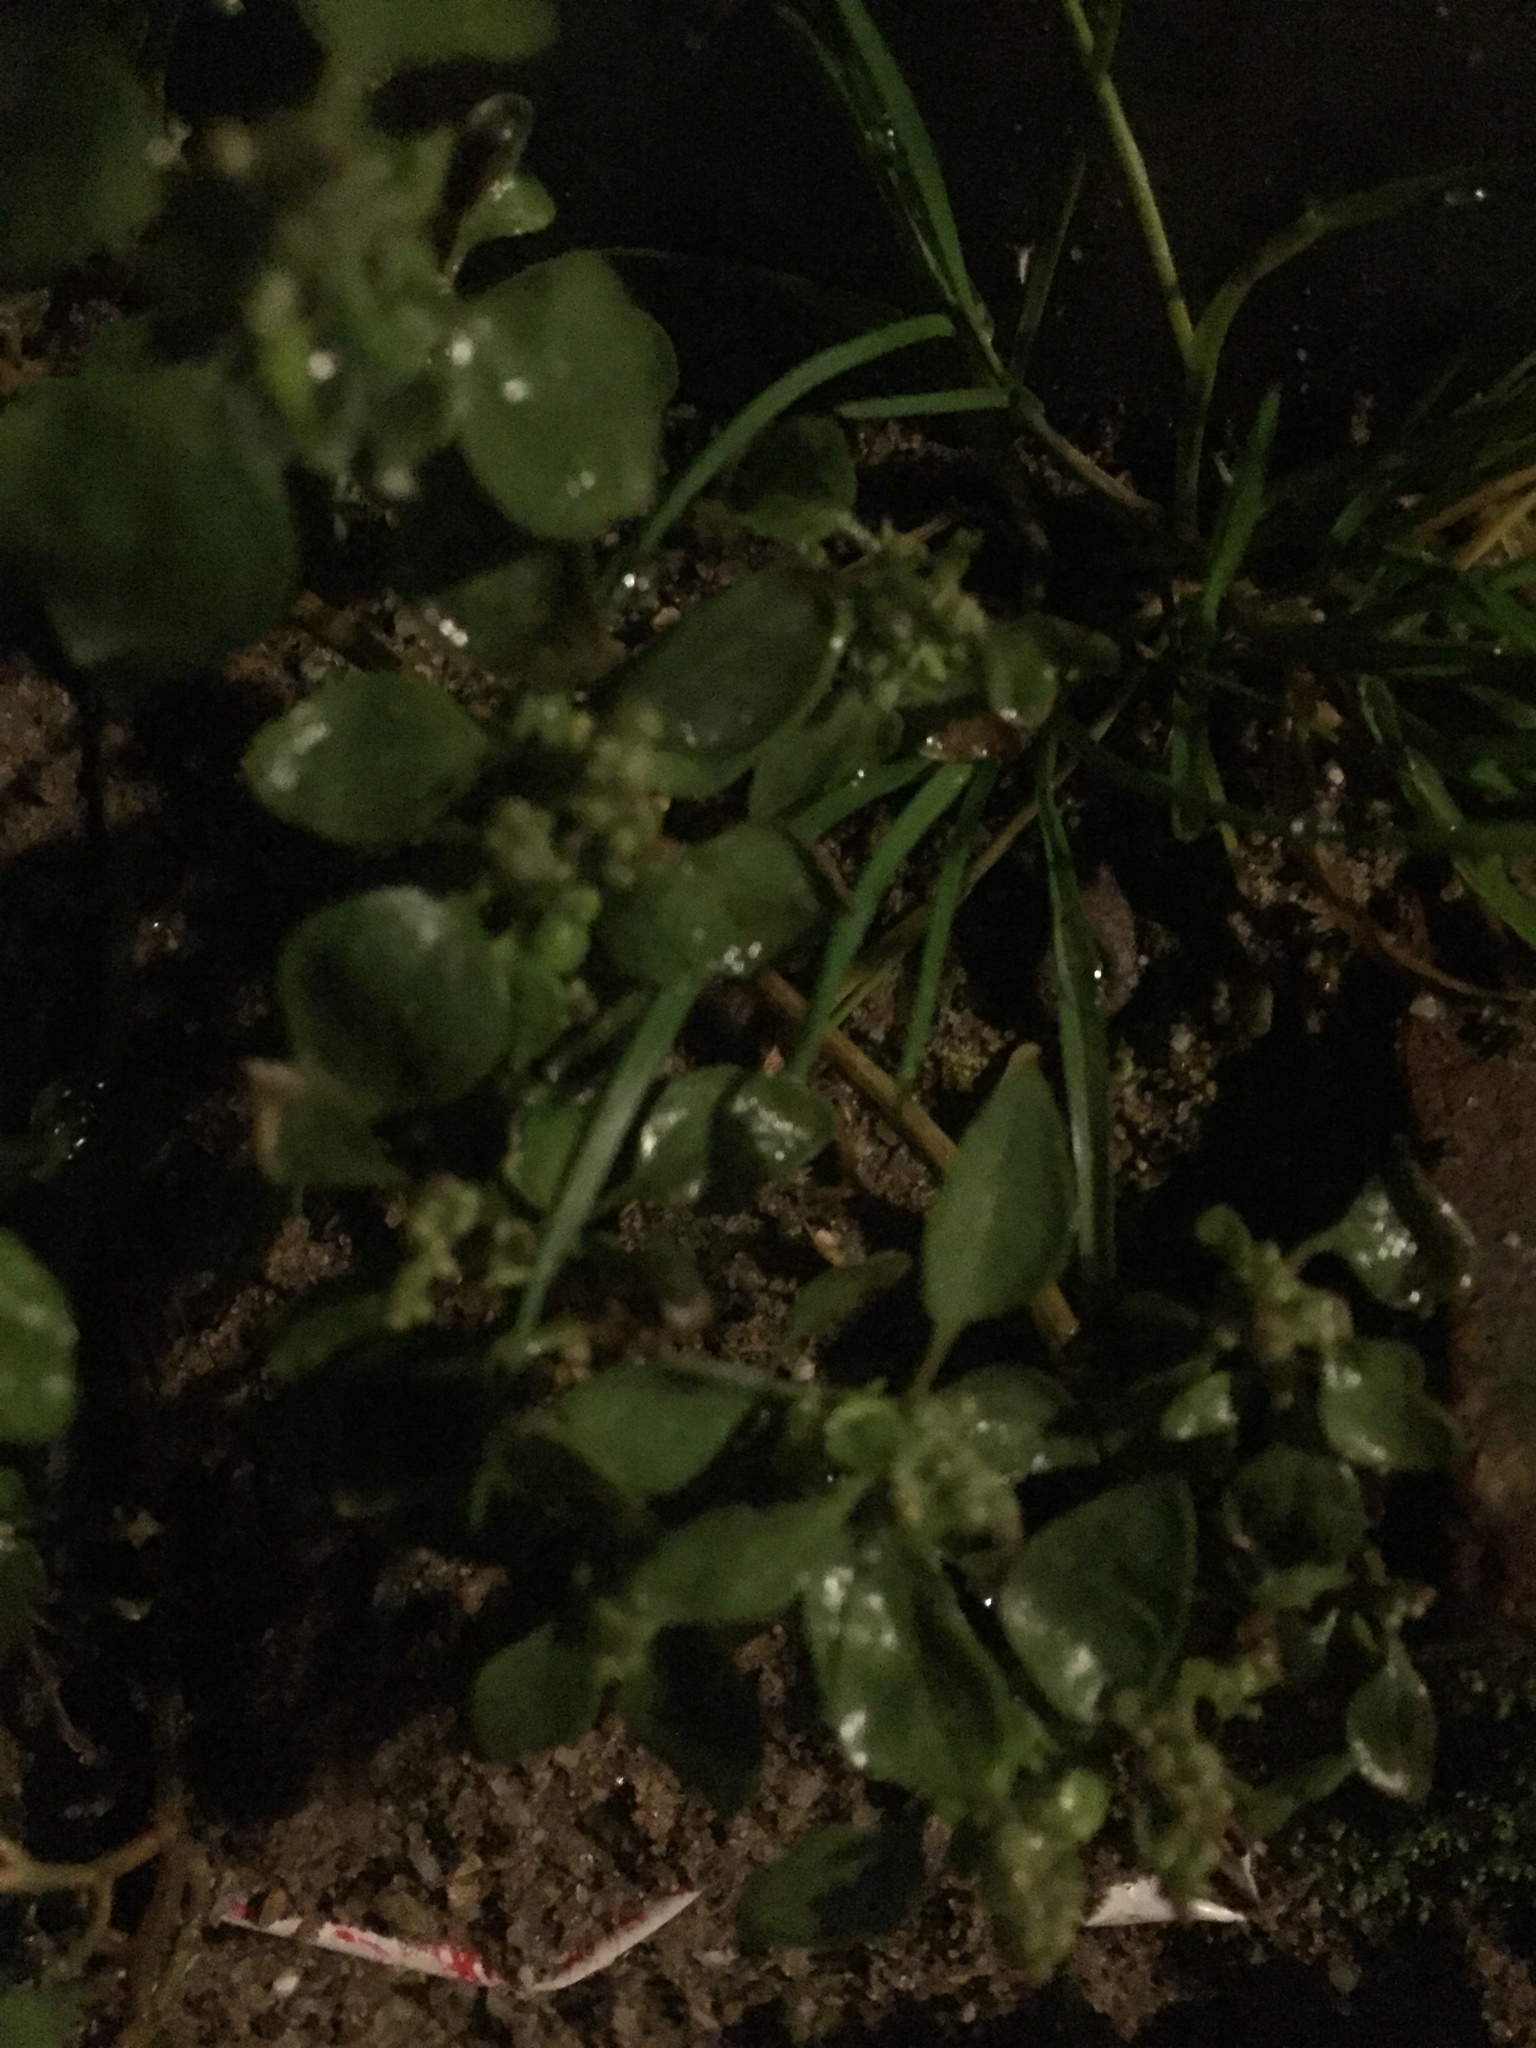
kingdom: Plantae
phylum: Tracheophyta
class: Magnoliopsida
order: Rosales
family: Urticaceae
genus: Parietaria
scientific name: Parietaria judaica
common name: Pellitory-of-the-wall
